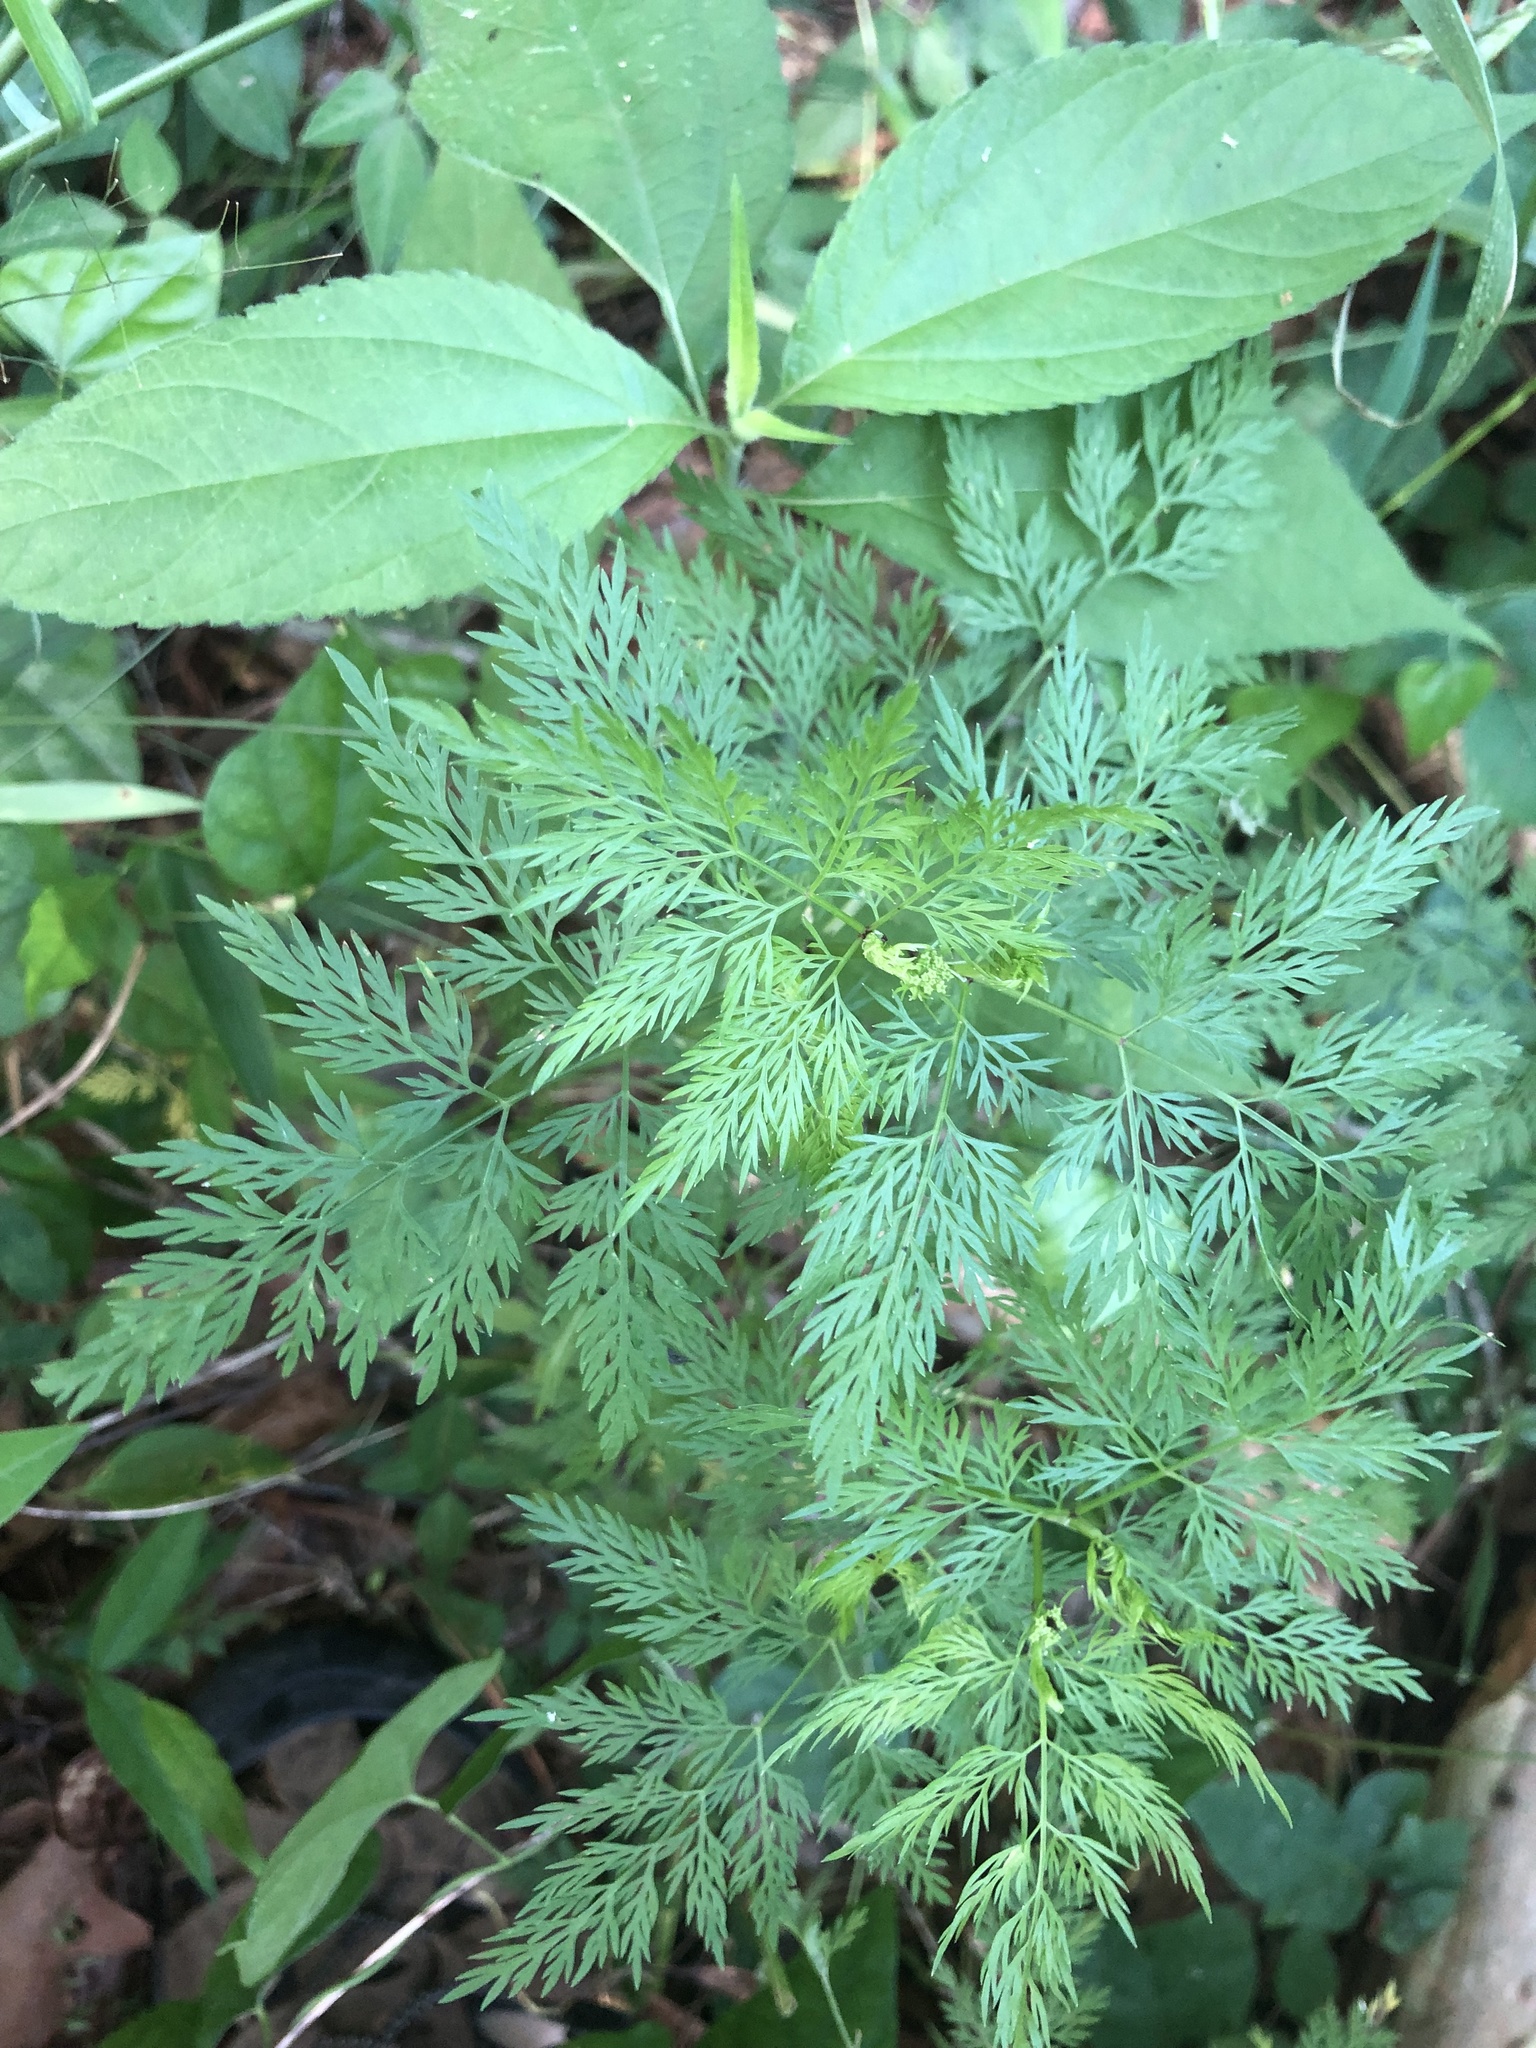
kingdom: Plantae
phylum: Tracheophyta
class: Magnoliopsida
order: Apiales
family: Apiaceae
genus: Trepocarpus
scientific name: Trepocarpus aethusae
